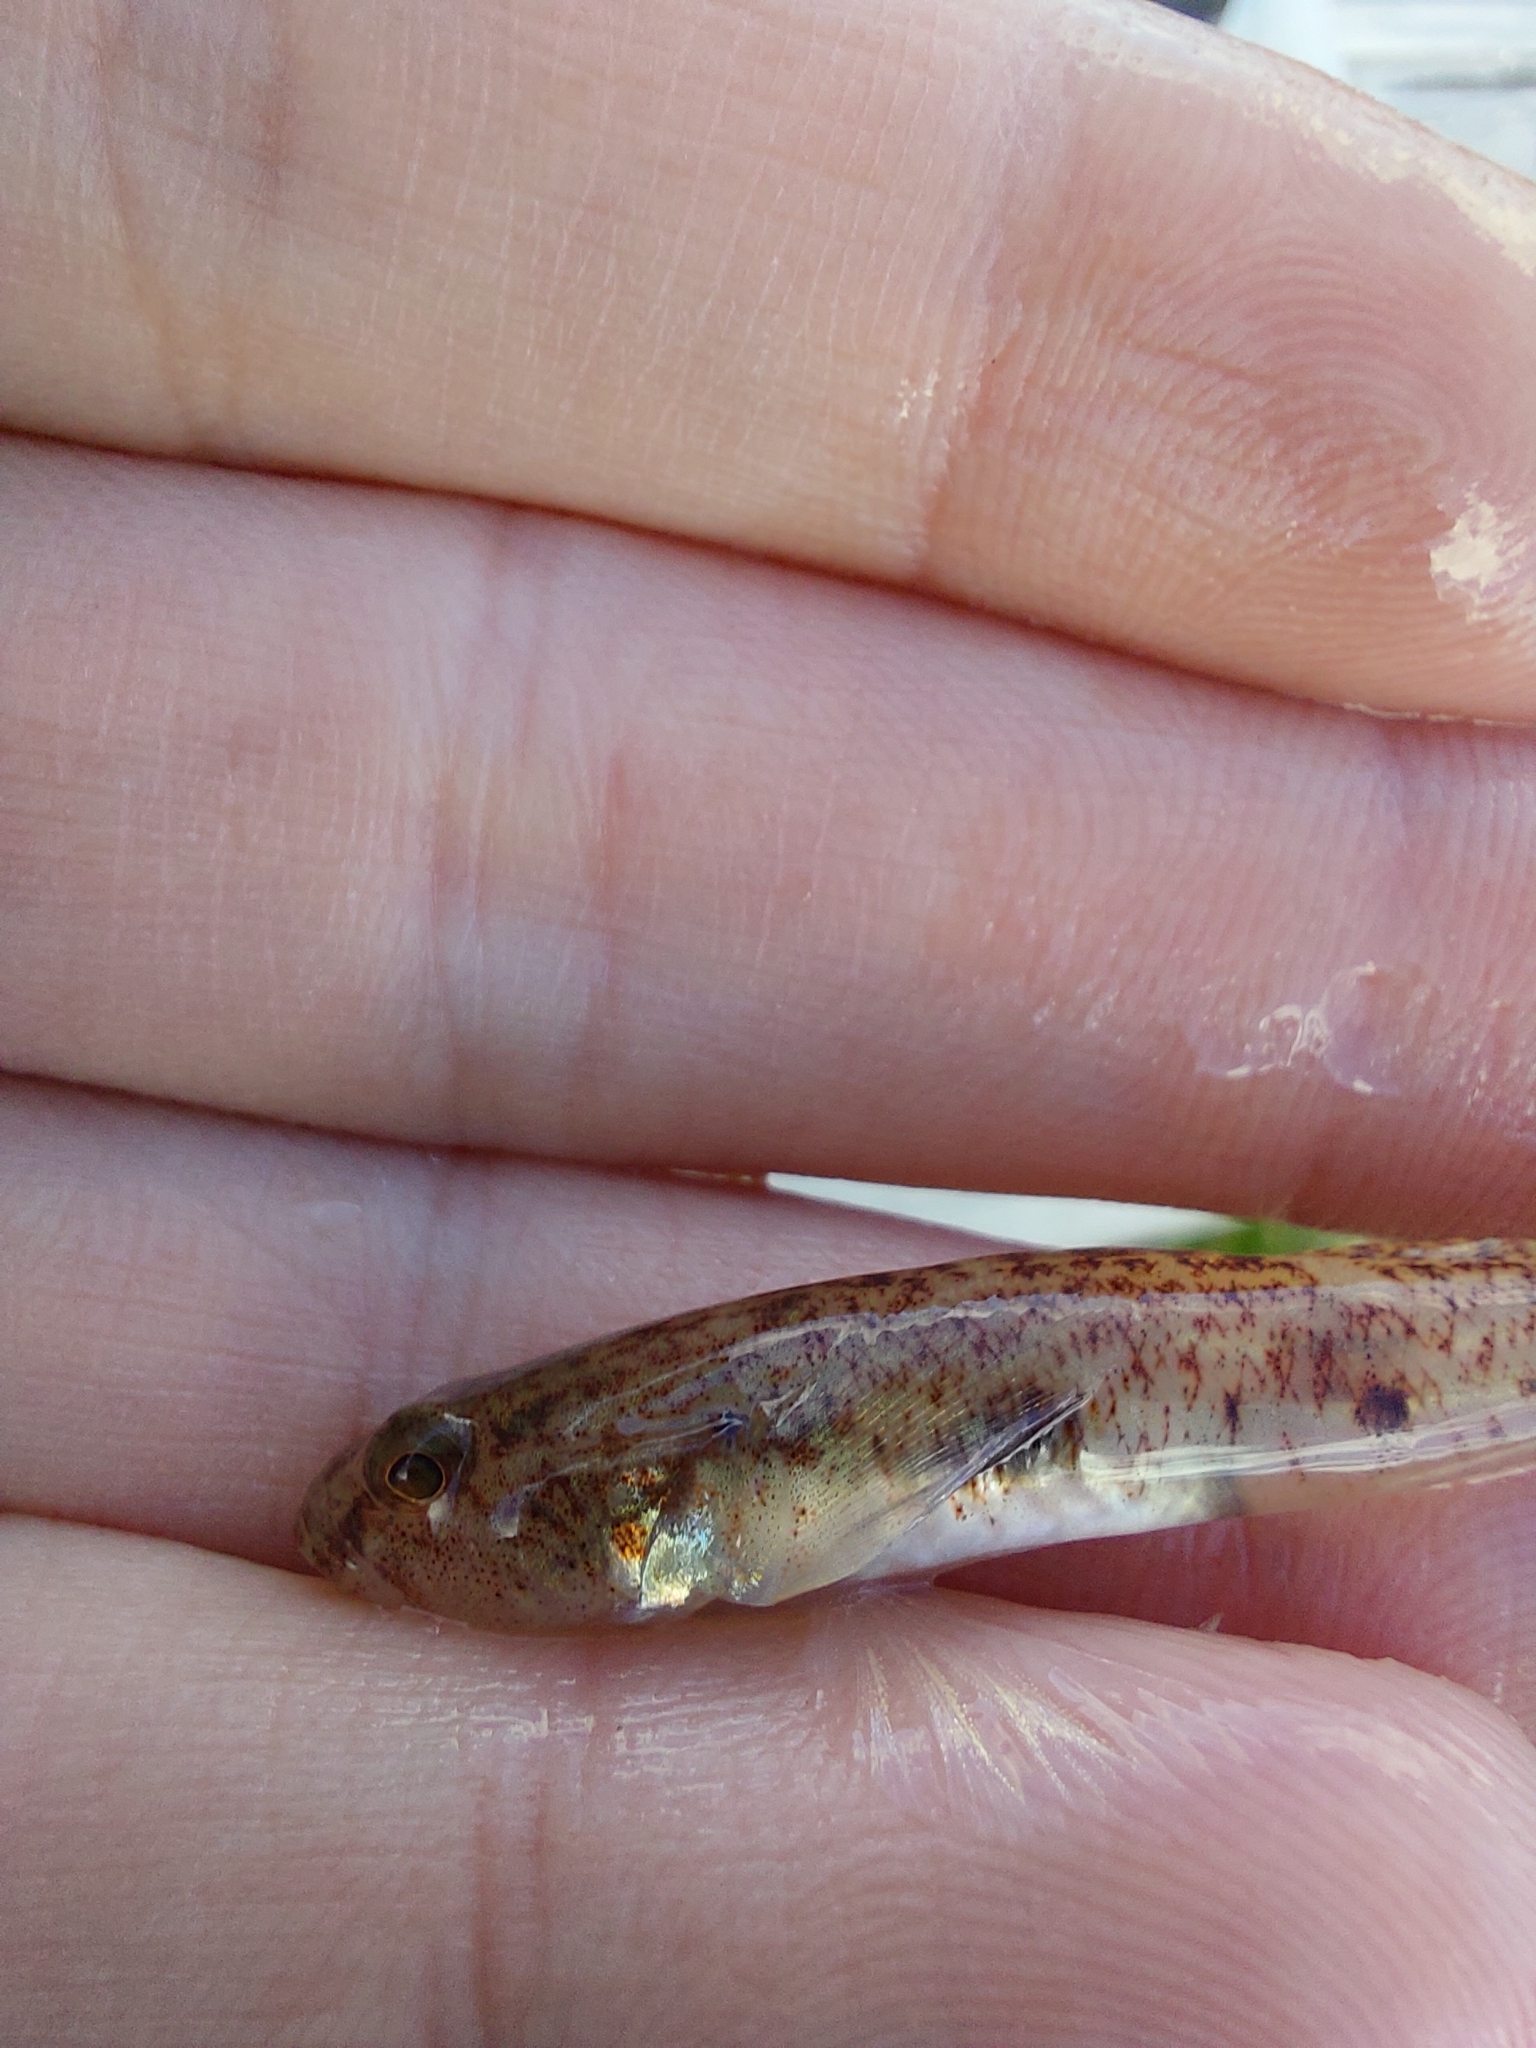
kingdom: Animalia
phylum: Chordata
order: Perciformes
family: Gobiidae
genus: Pomatoschistus
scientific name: Pomatoschistus minutus
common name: Sand goby
